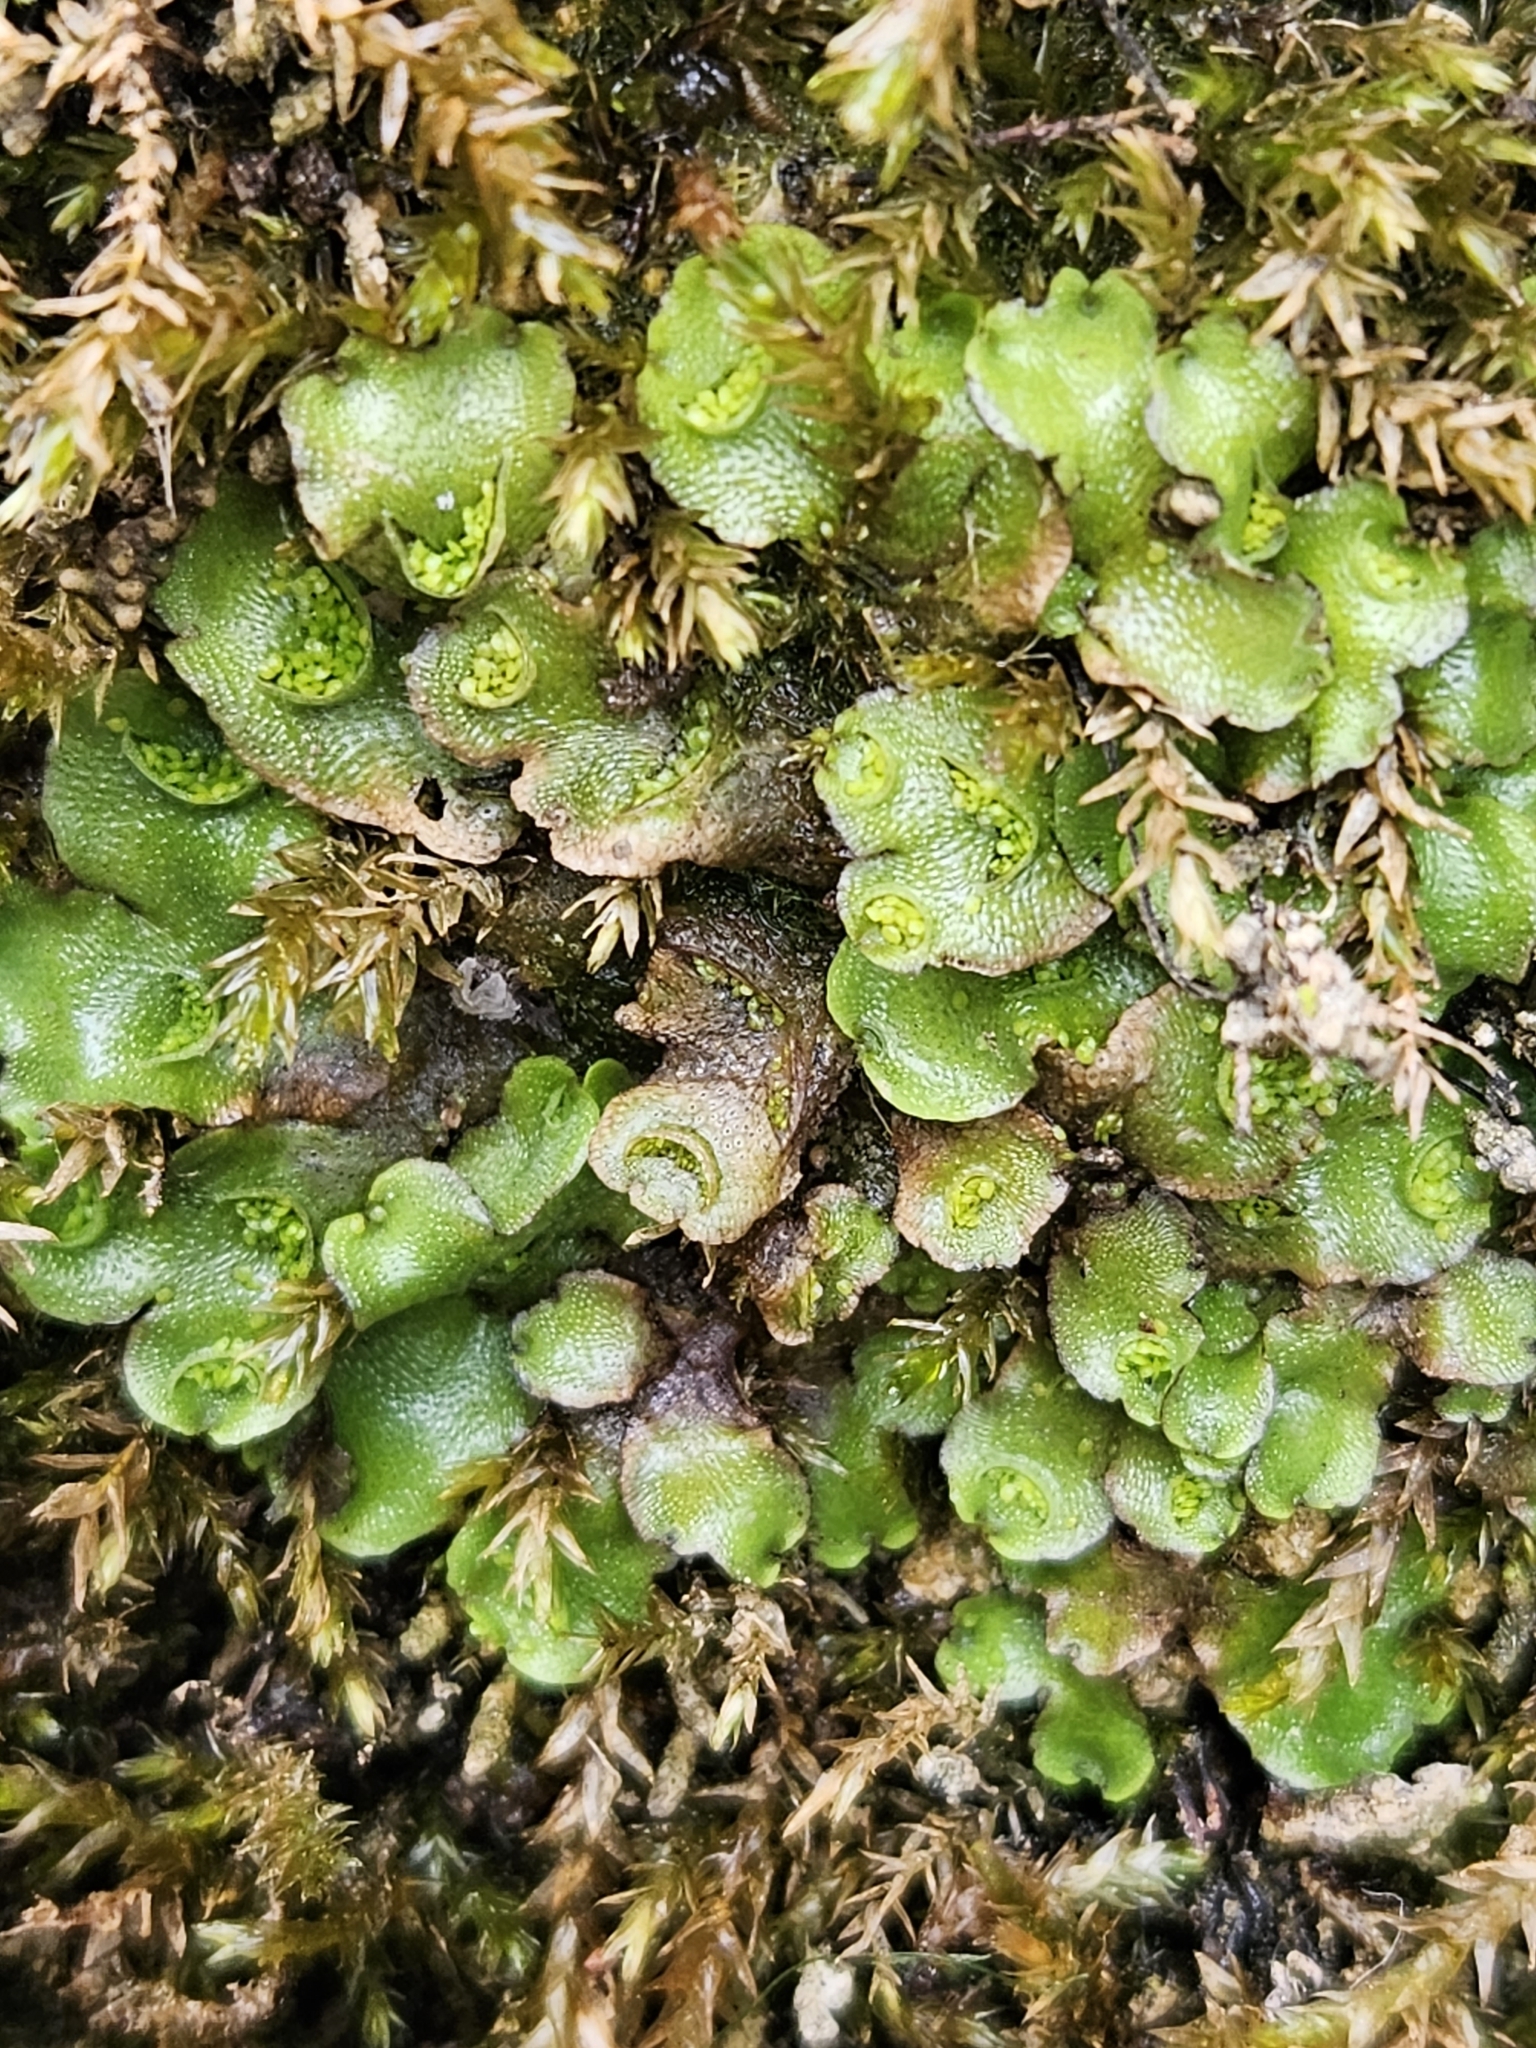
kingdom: Plantae
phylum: Marchantiophyta
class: Marchantiopsida
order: Lunulariales
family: Lunulariaceae
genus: Lunularia
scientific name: Lunularia cruciata
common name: Crescent-cup liverwort
